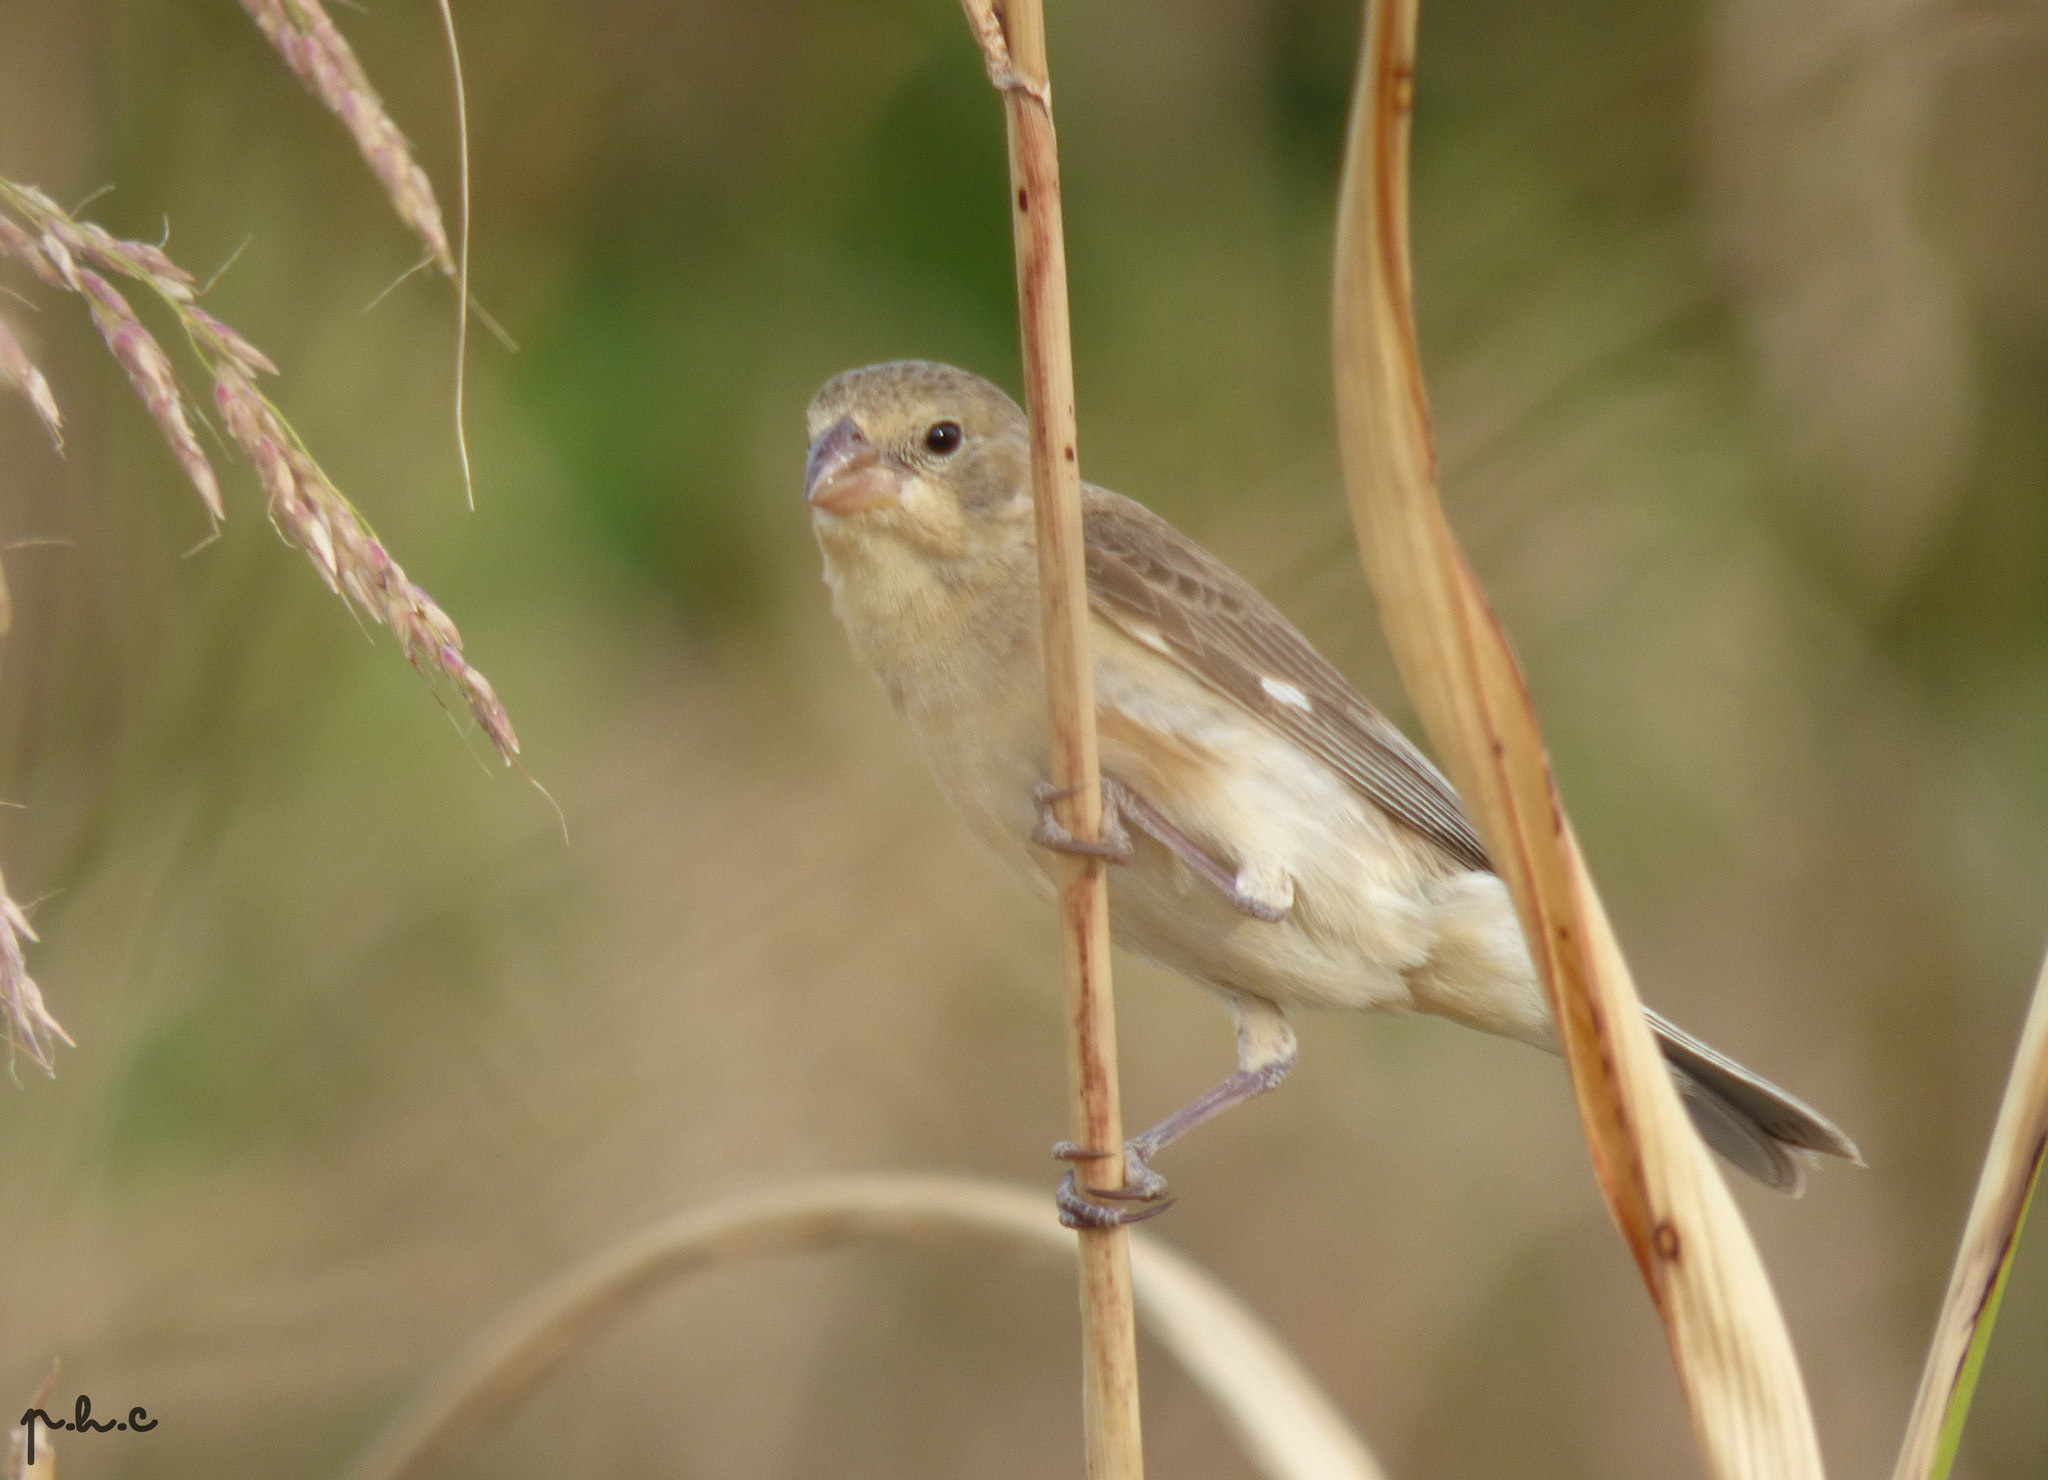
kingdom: Animalia
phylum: Chordata
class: Aves
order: Passeriformes
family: Thraupidae
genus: Sporophila
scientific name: Sporophila ruficollis
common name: Dark-throated seedeater
